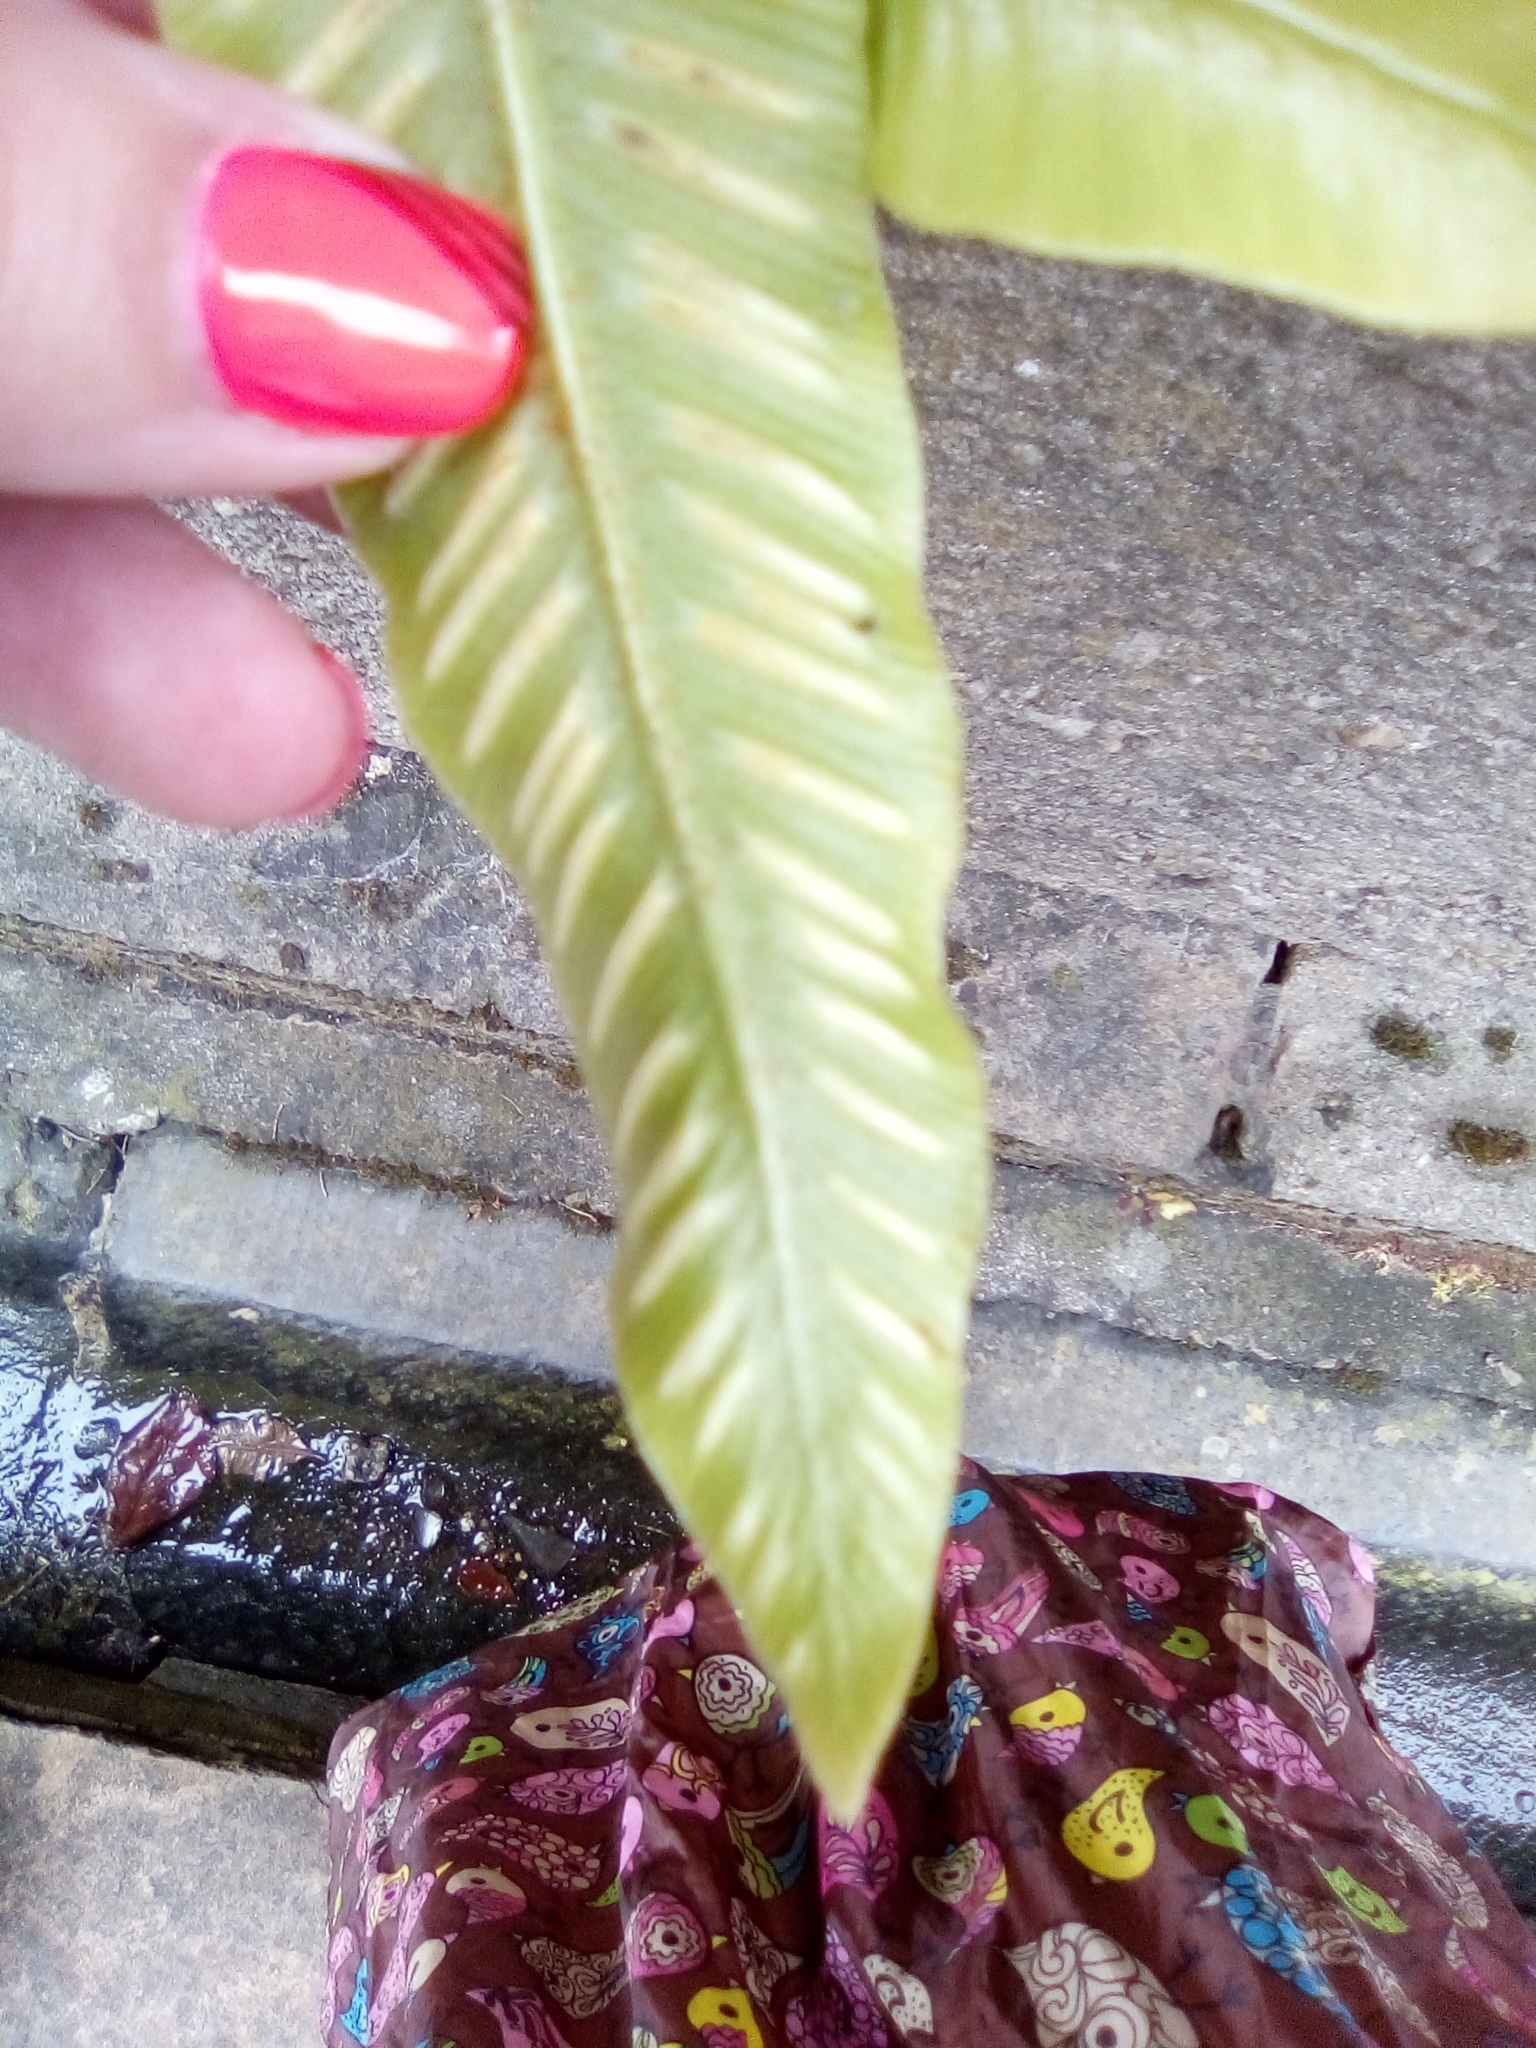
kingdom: Plantae
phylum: Tracheophyta
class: Polypodiopsida
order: Polypodiales
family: Aspleniaceae
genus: Asplenium
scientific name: Asplenium scolopendrium
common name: Hart's-tongue fern
